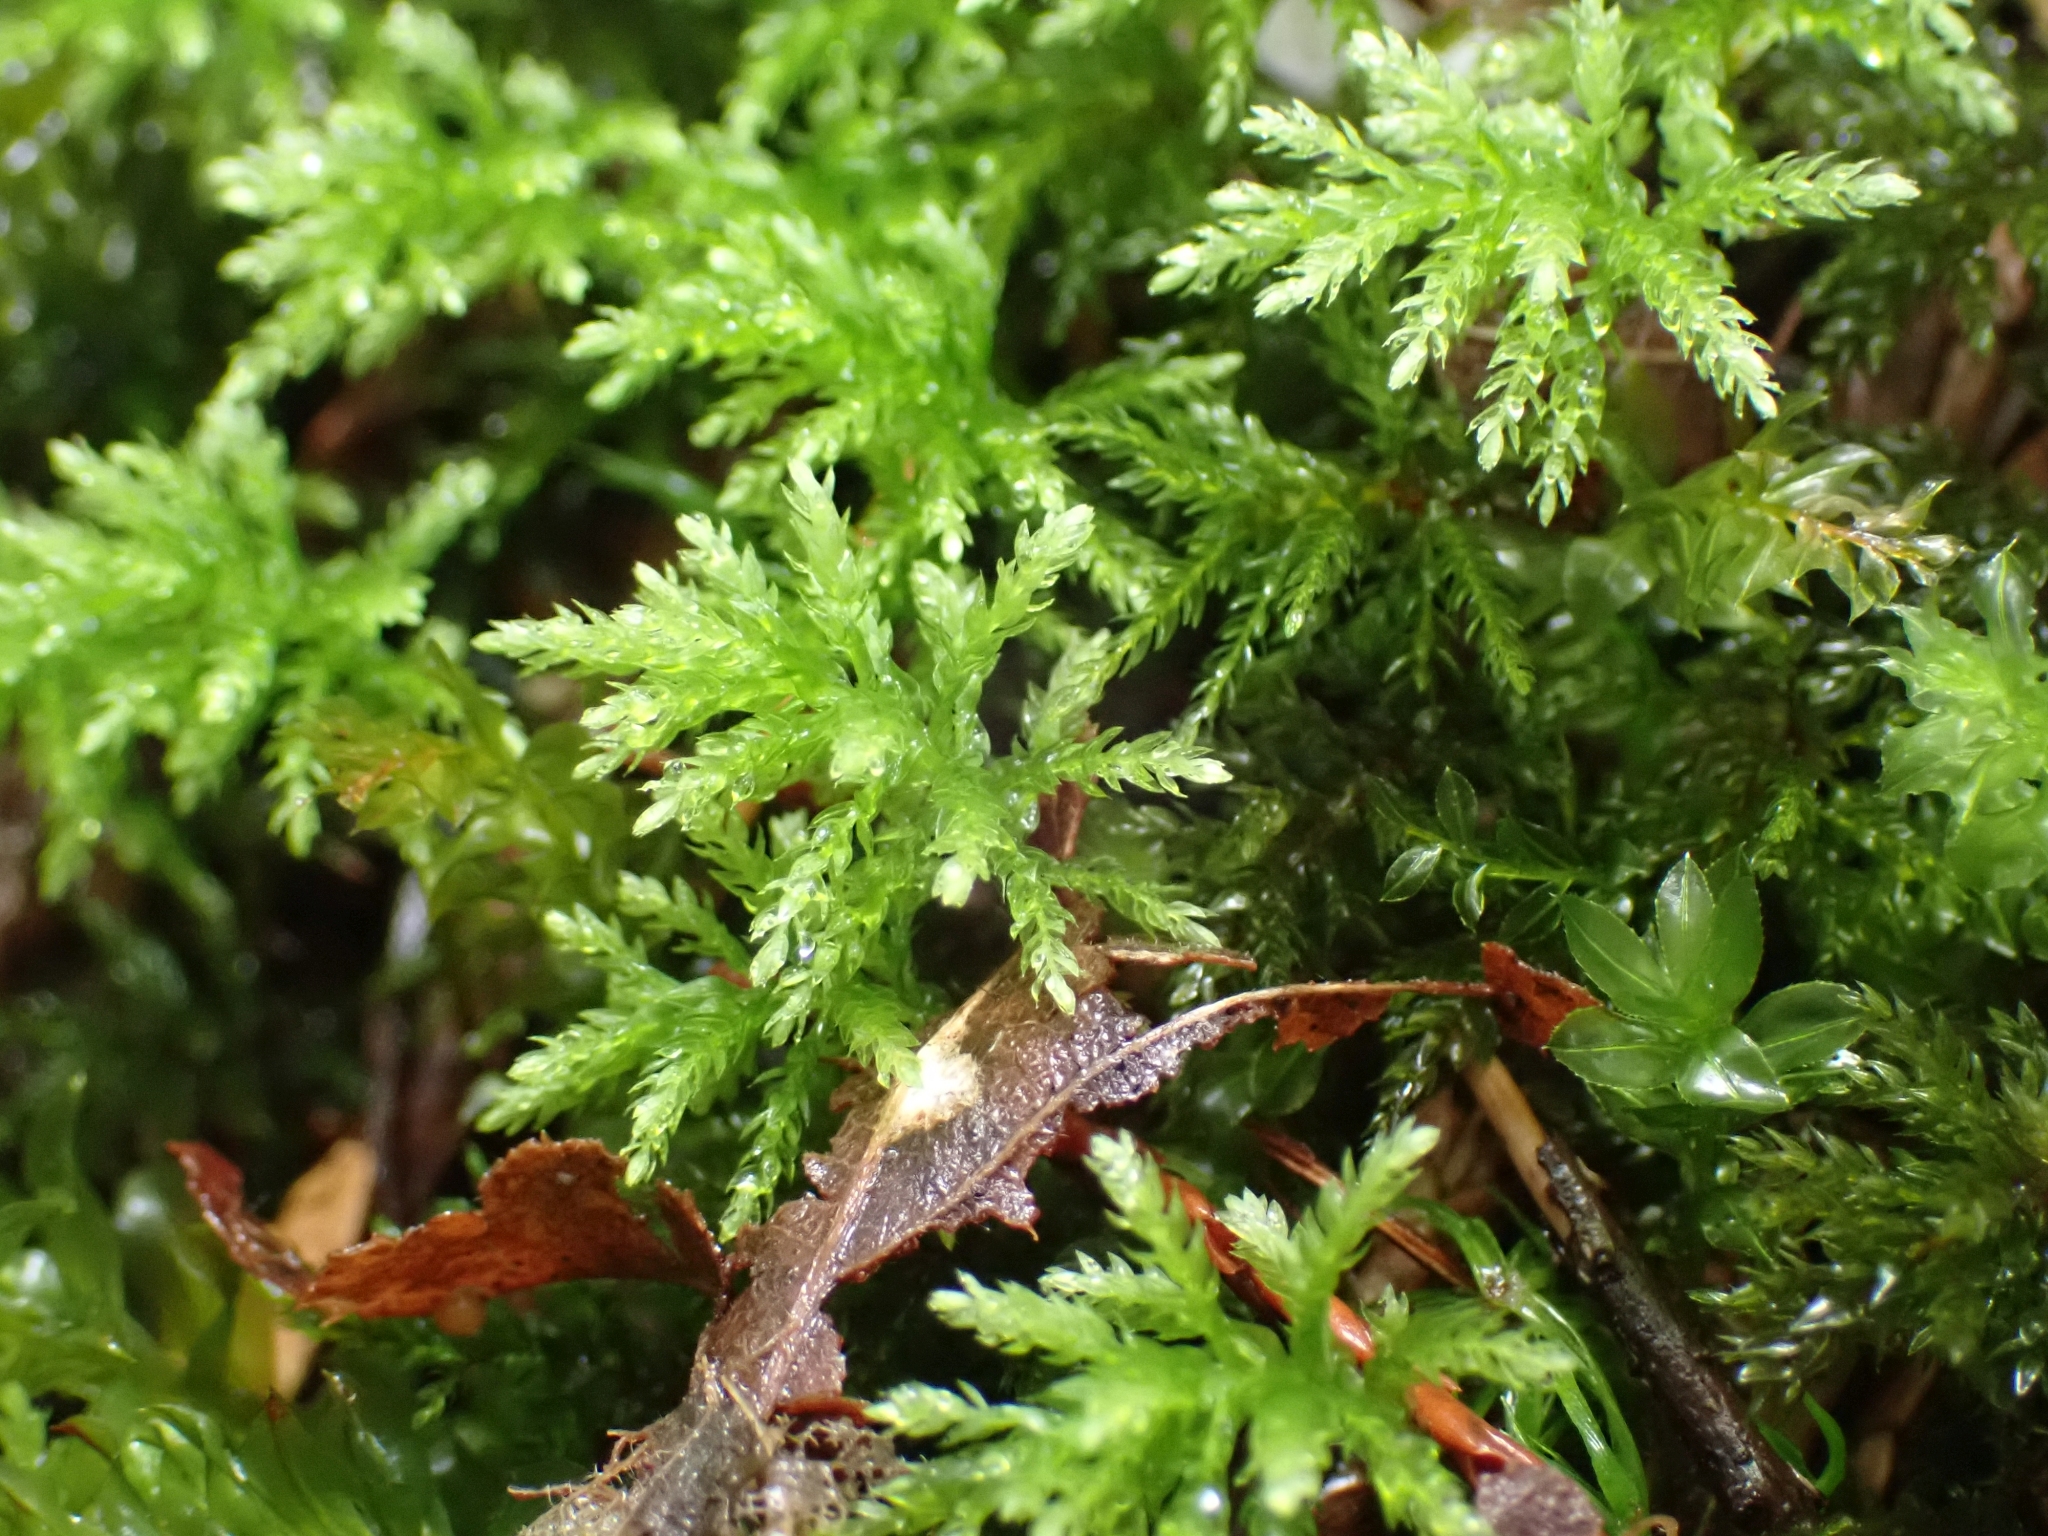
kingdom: Plantae
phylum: Bryophyta
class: Bryopsida
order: Bryales
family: Mniaceae
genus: Leucolepis
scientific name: Leucolepis acanthoneura
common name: Leucolepis umbrella moss
